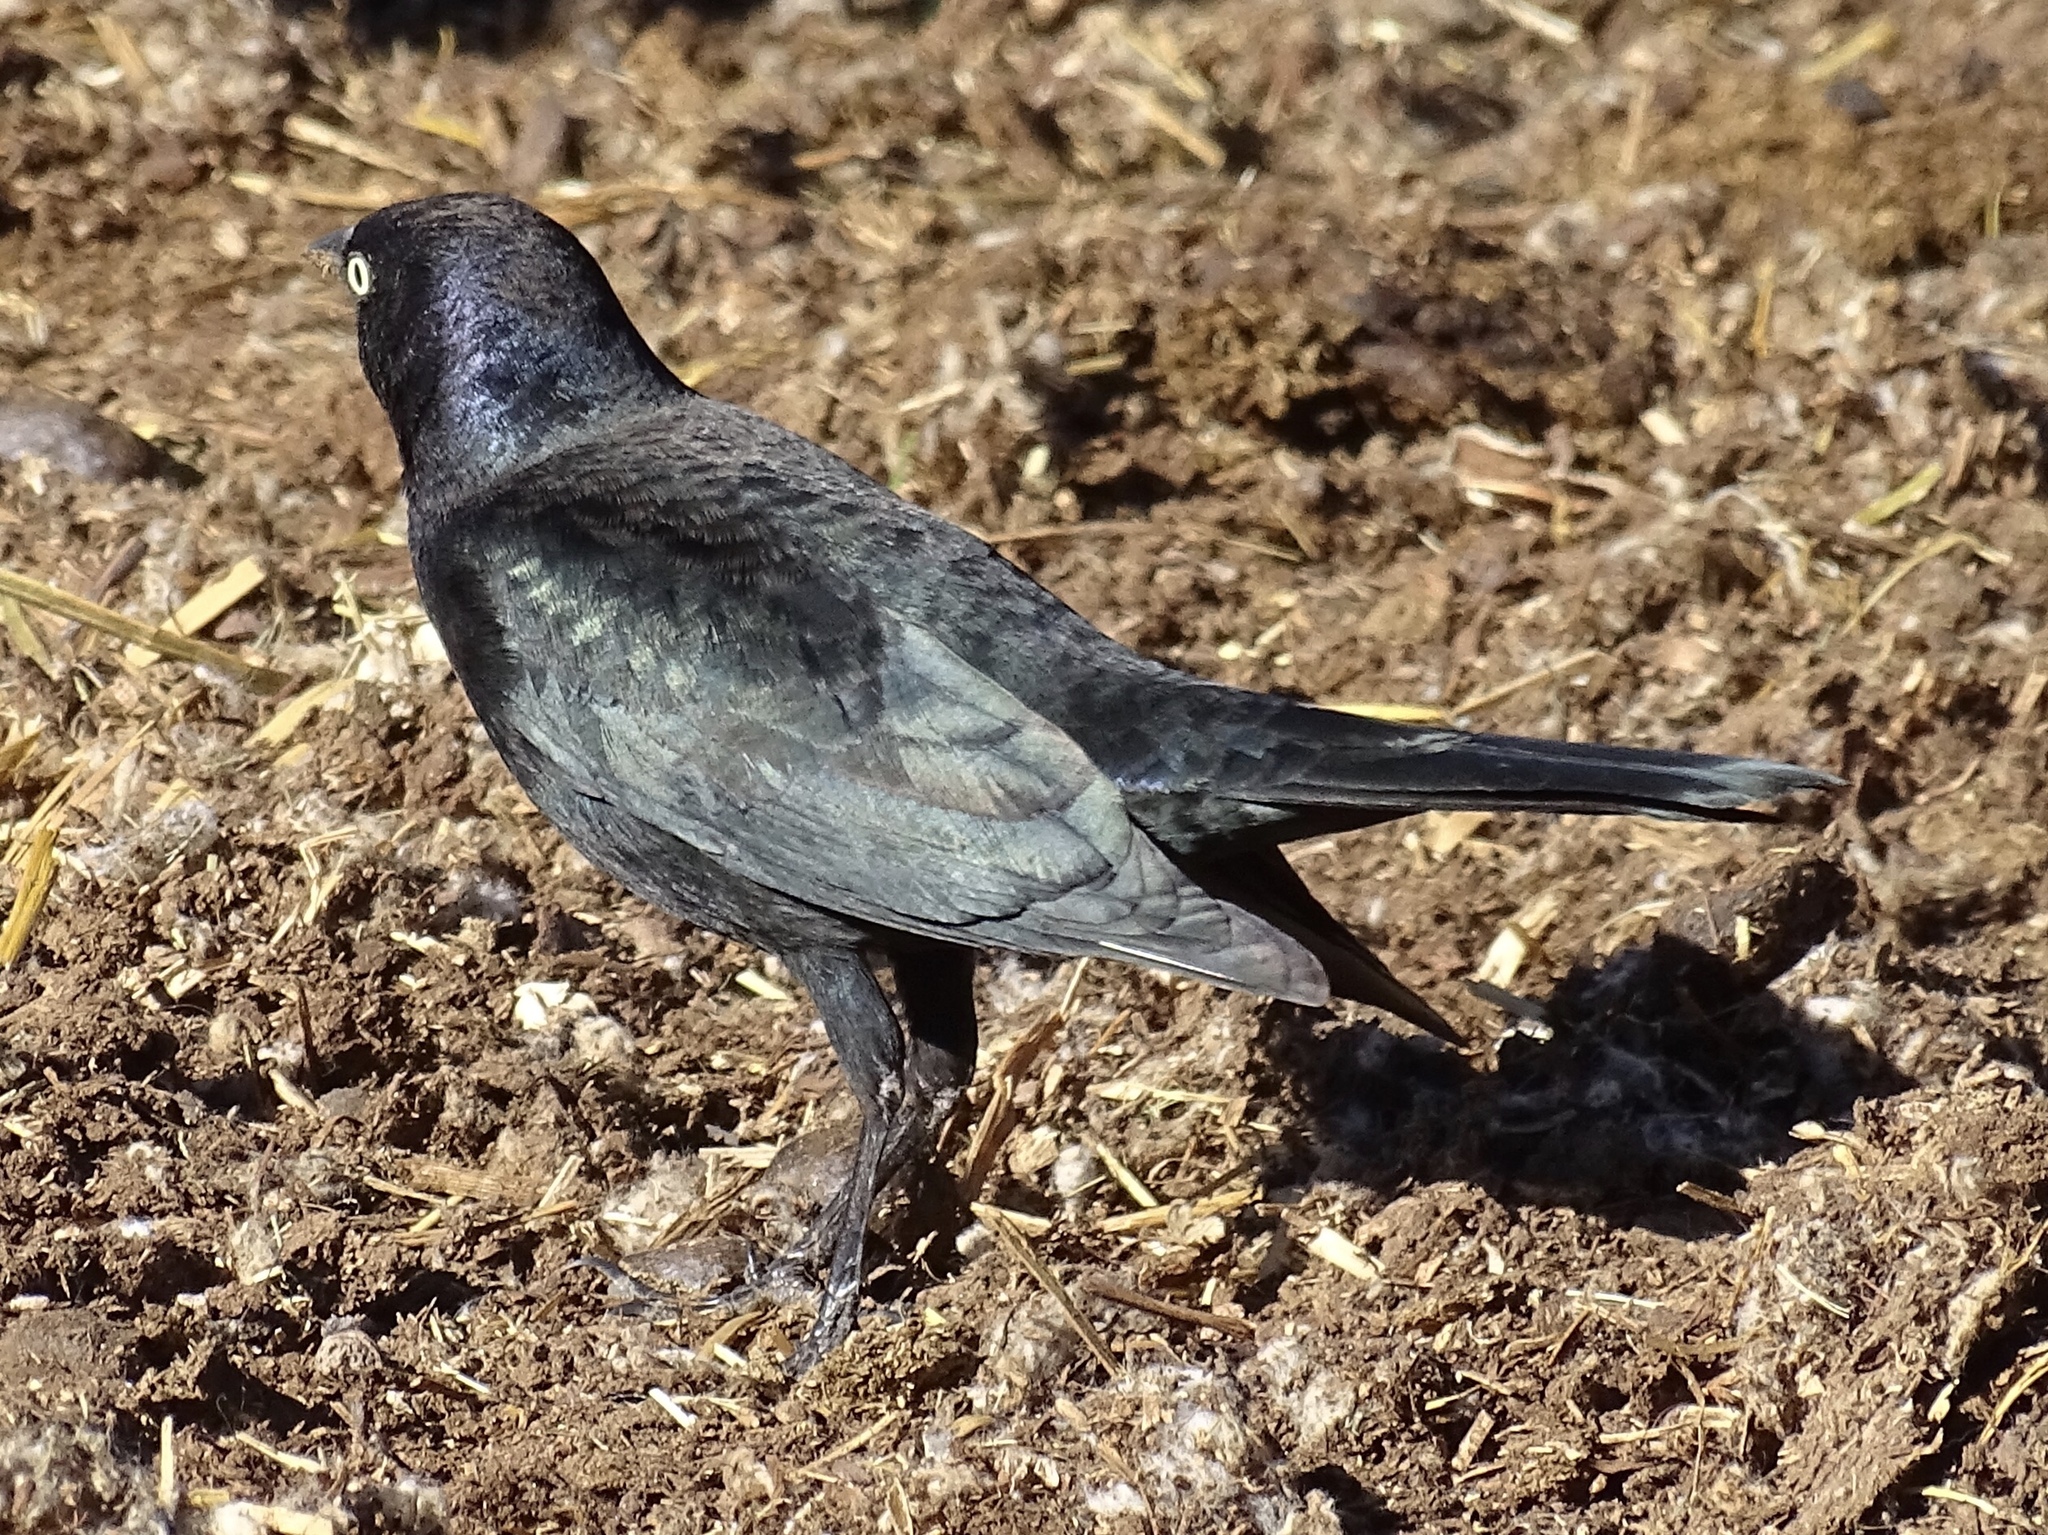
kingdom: Animalia
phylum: Chordata
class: Aves
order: Passeriformes
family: Icteridae
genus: Euphagus
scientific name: Euphagus cyanocephalus
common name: Brewer's blackbird
